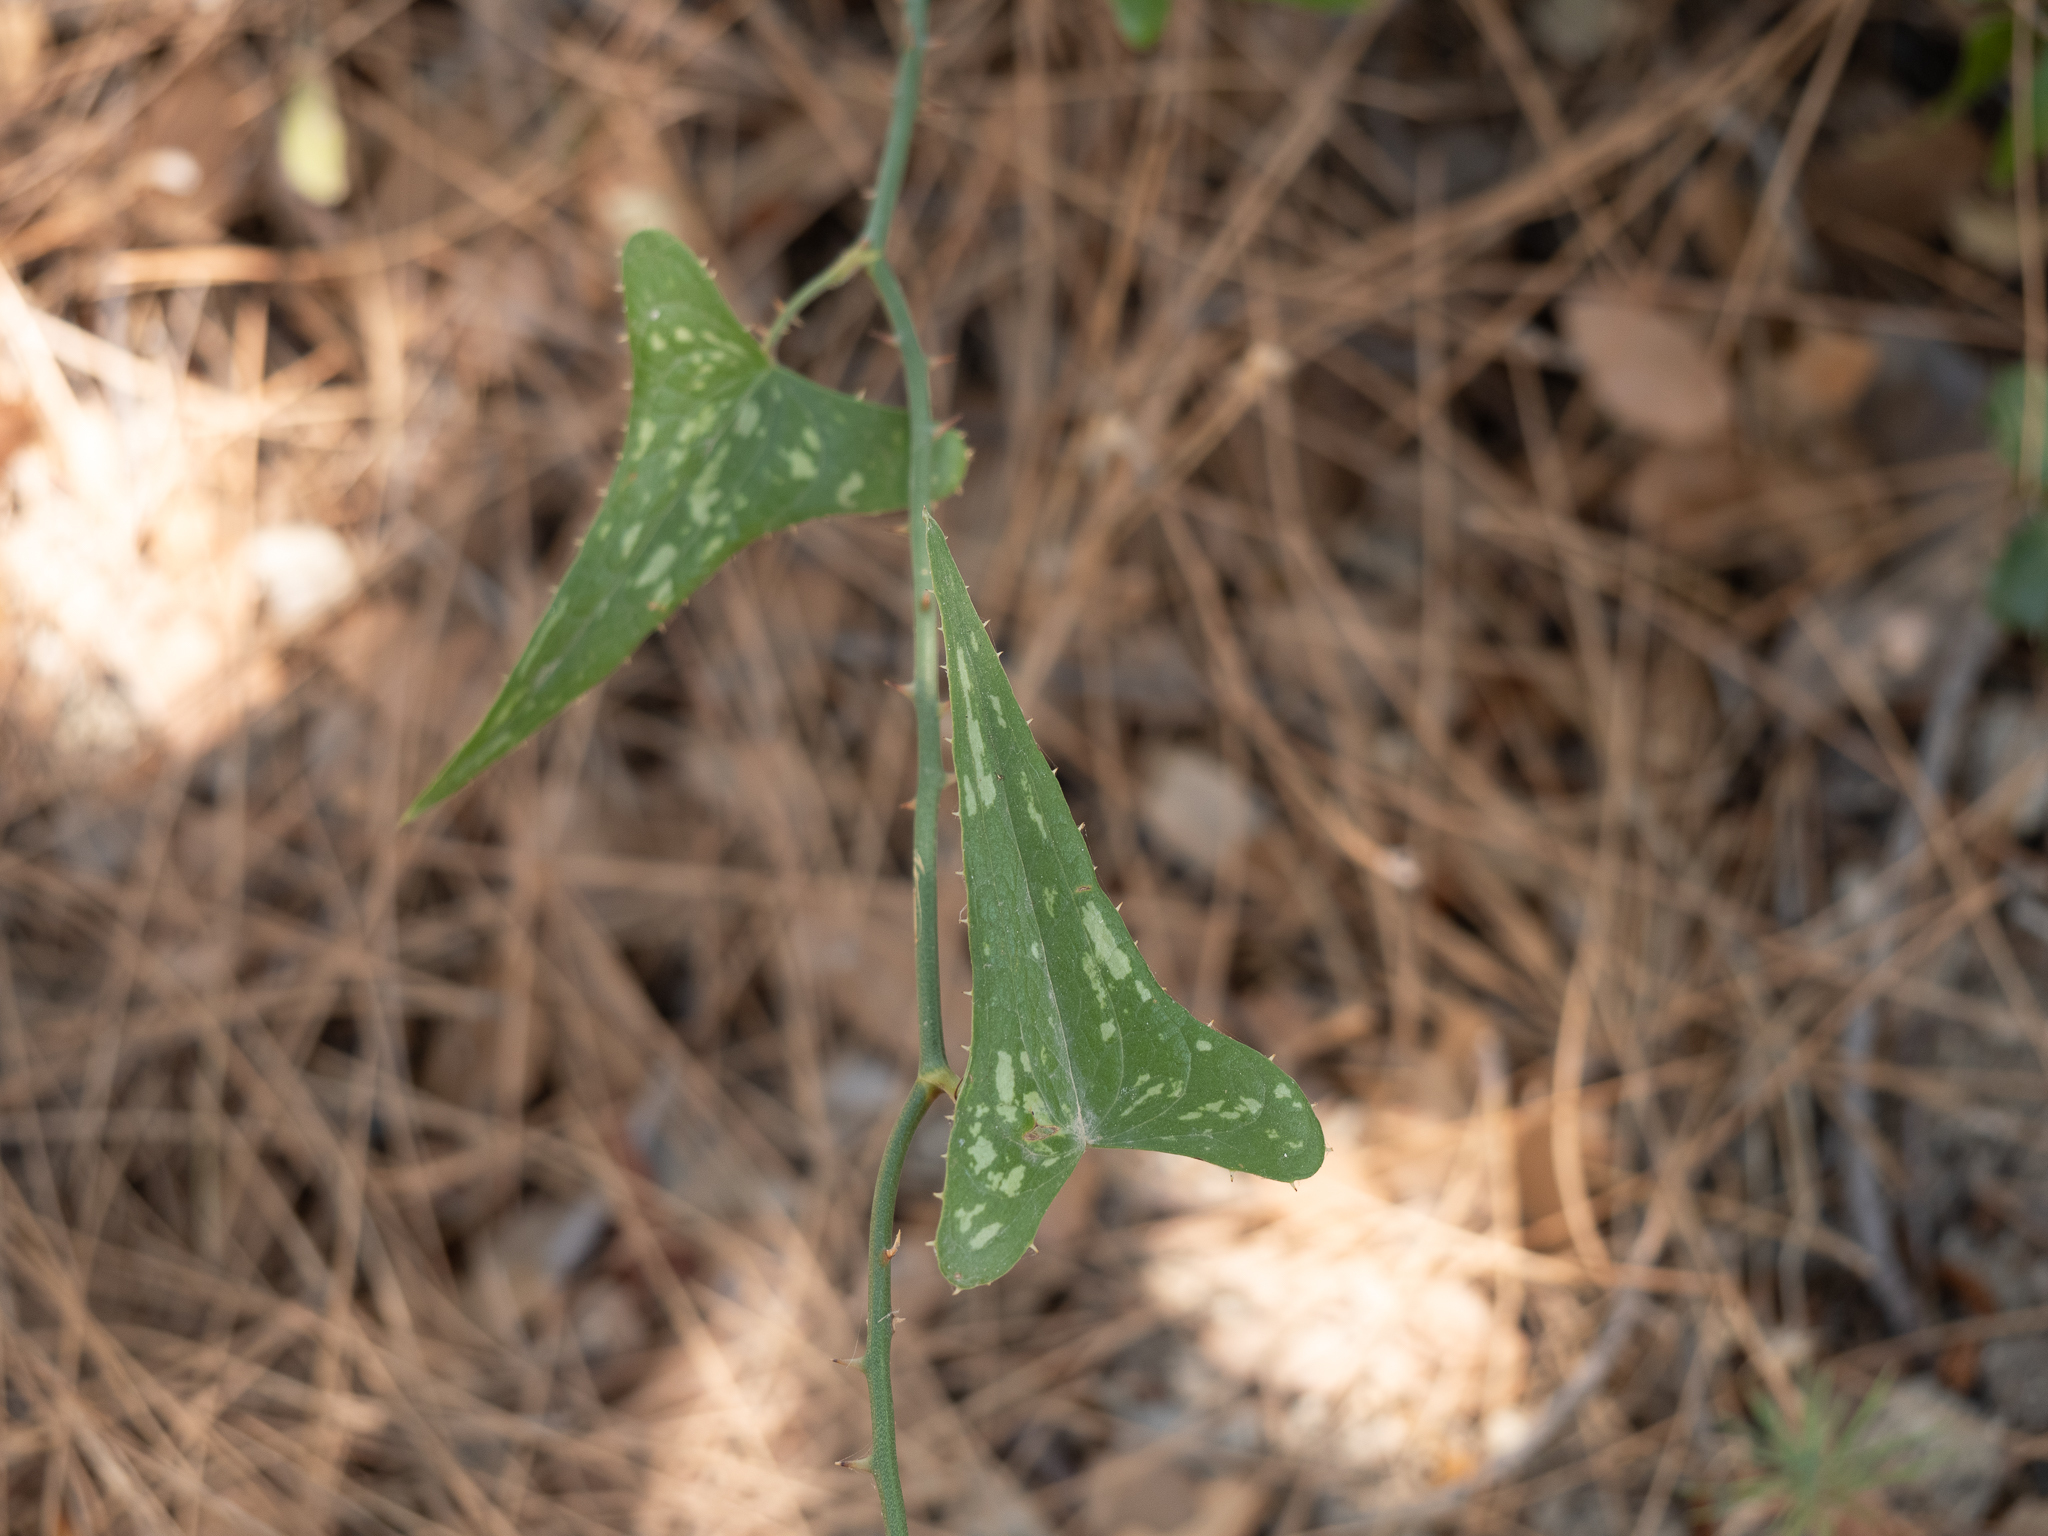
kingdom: Plantae
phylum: Tracheophyta
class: Liliopsida
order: Liliales
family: Smilacaceae
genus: Smilax
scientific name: Smilax aspera
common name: Common smilax
